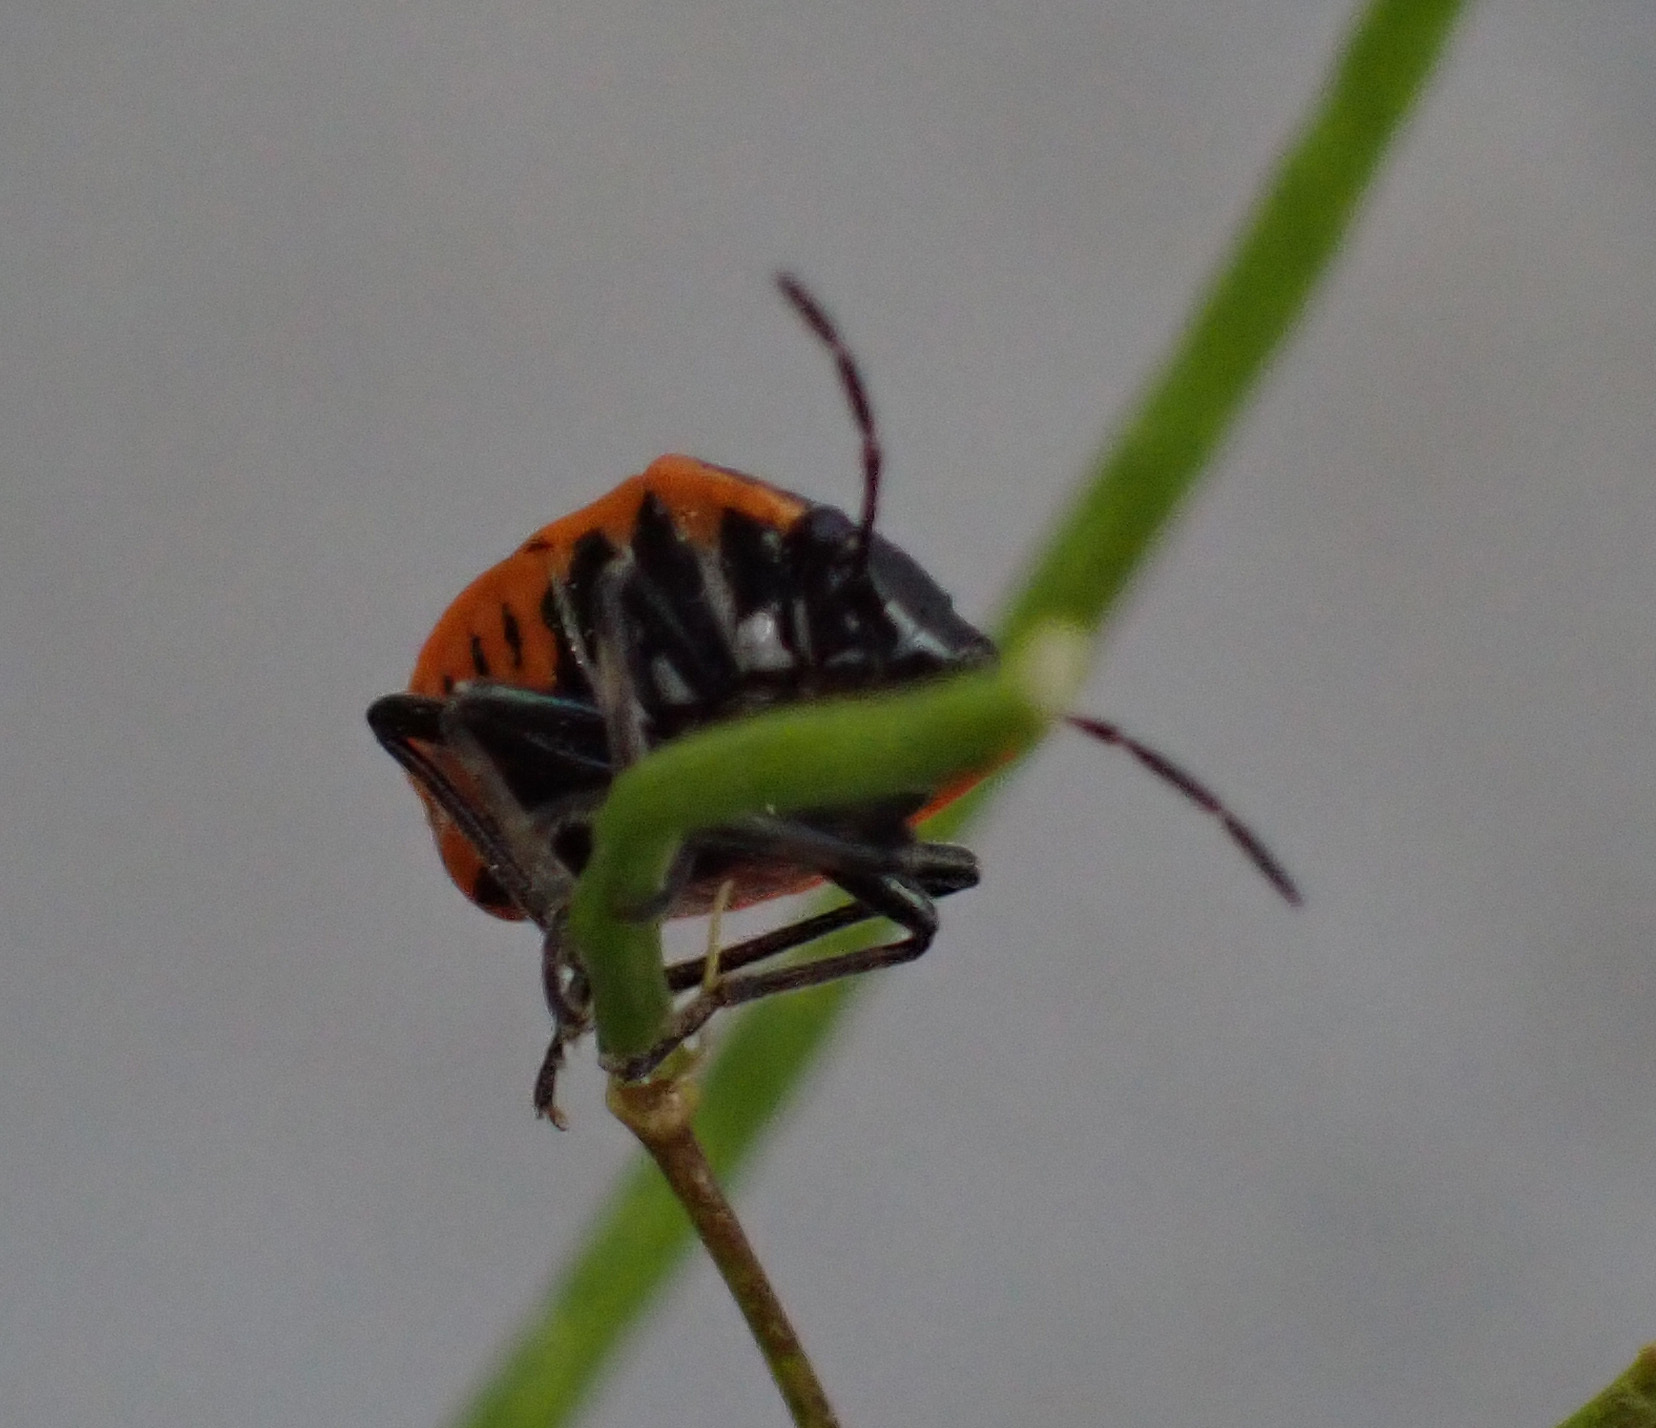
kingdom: Animalia
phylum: Arthropoda
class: Insecta
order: Hemiptera
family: Pentatomidae
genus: Eurydema
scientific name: Eurydema ornata
